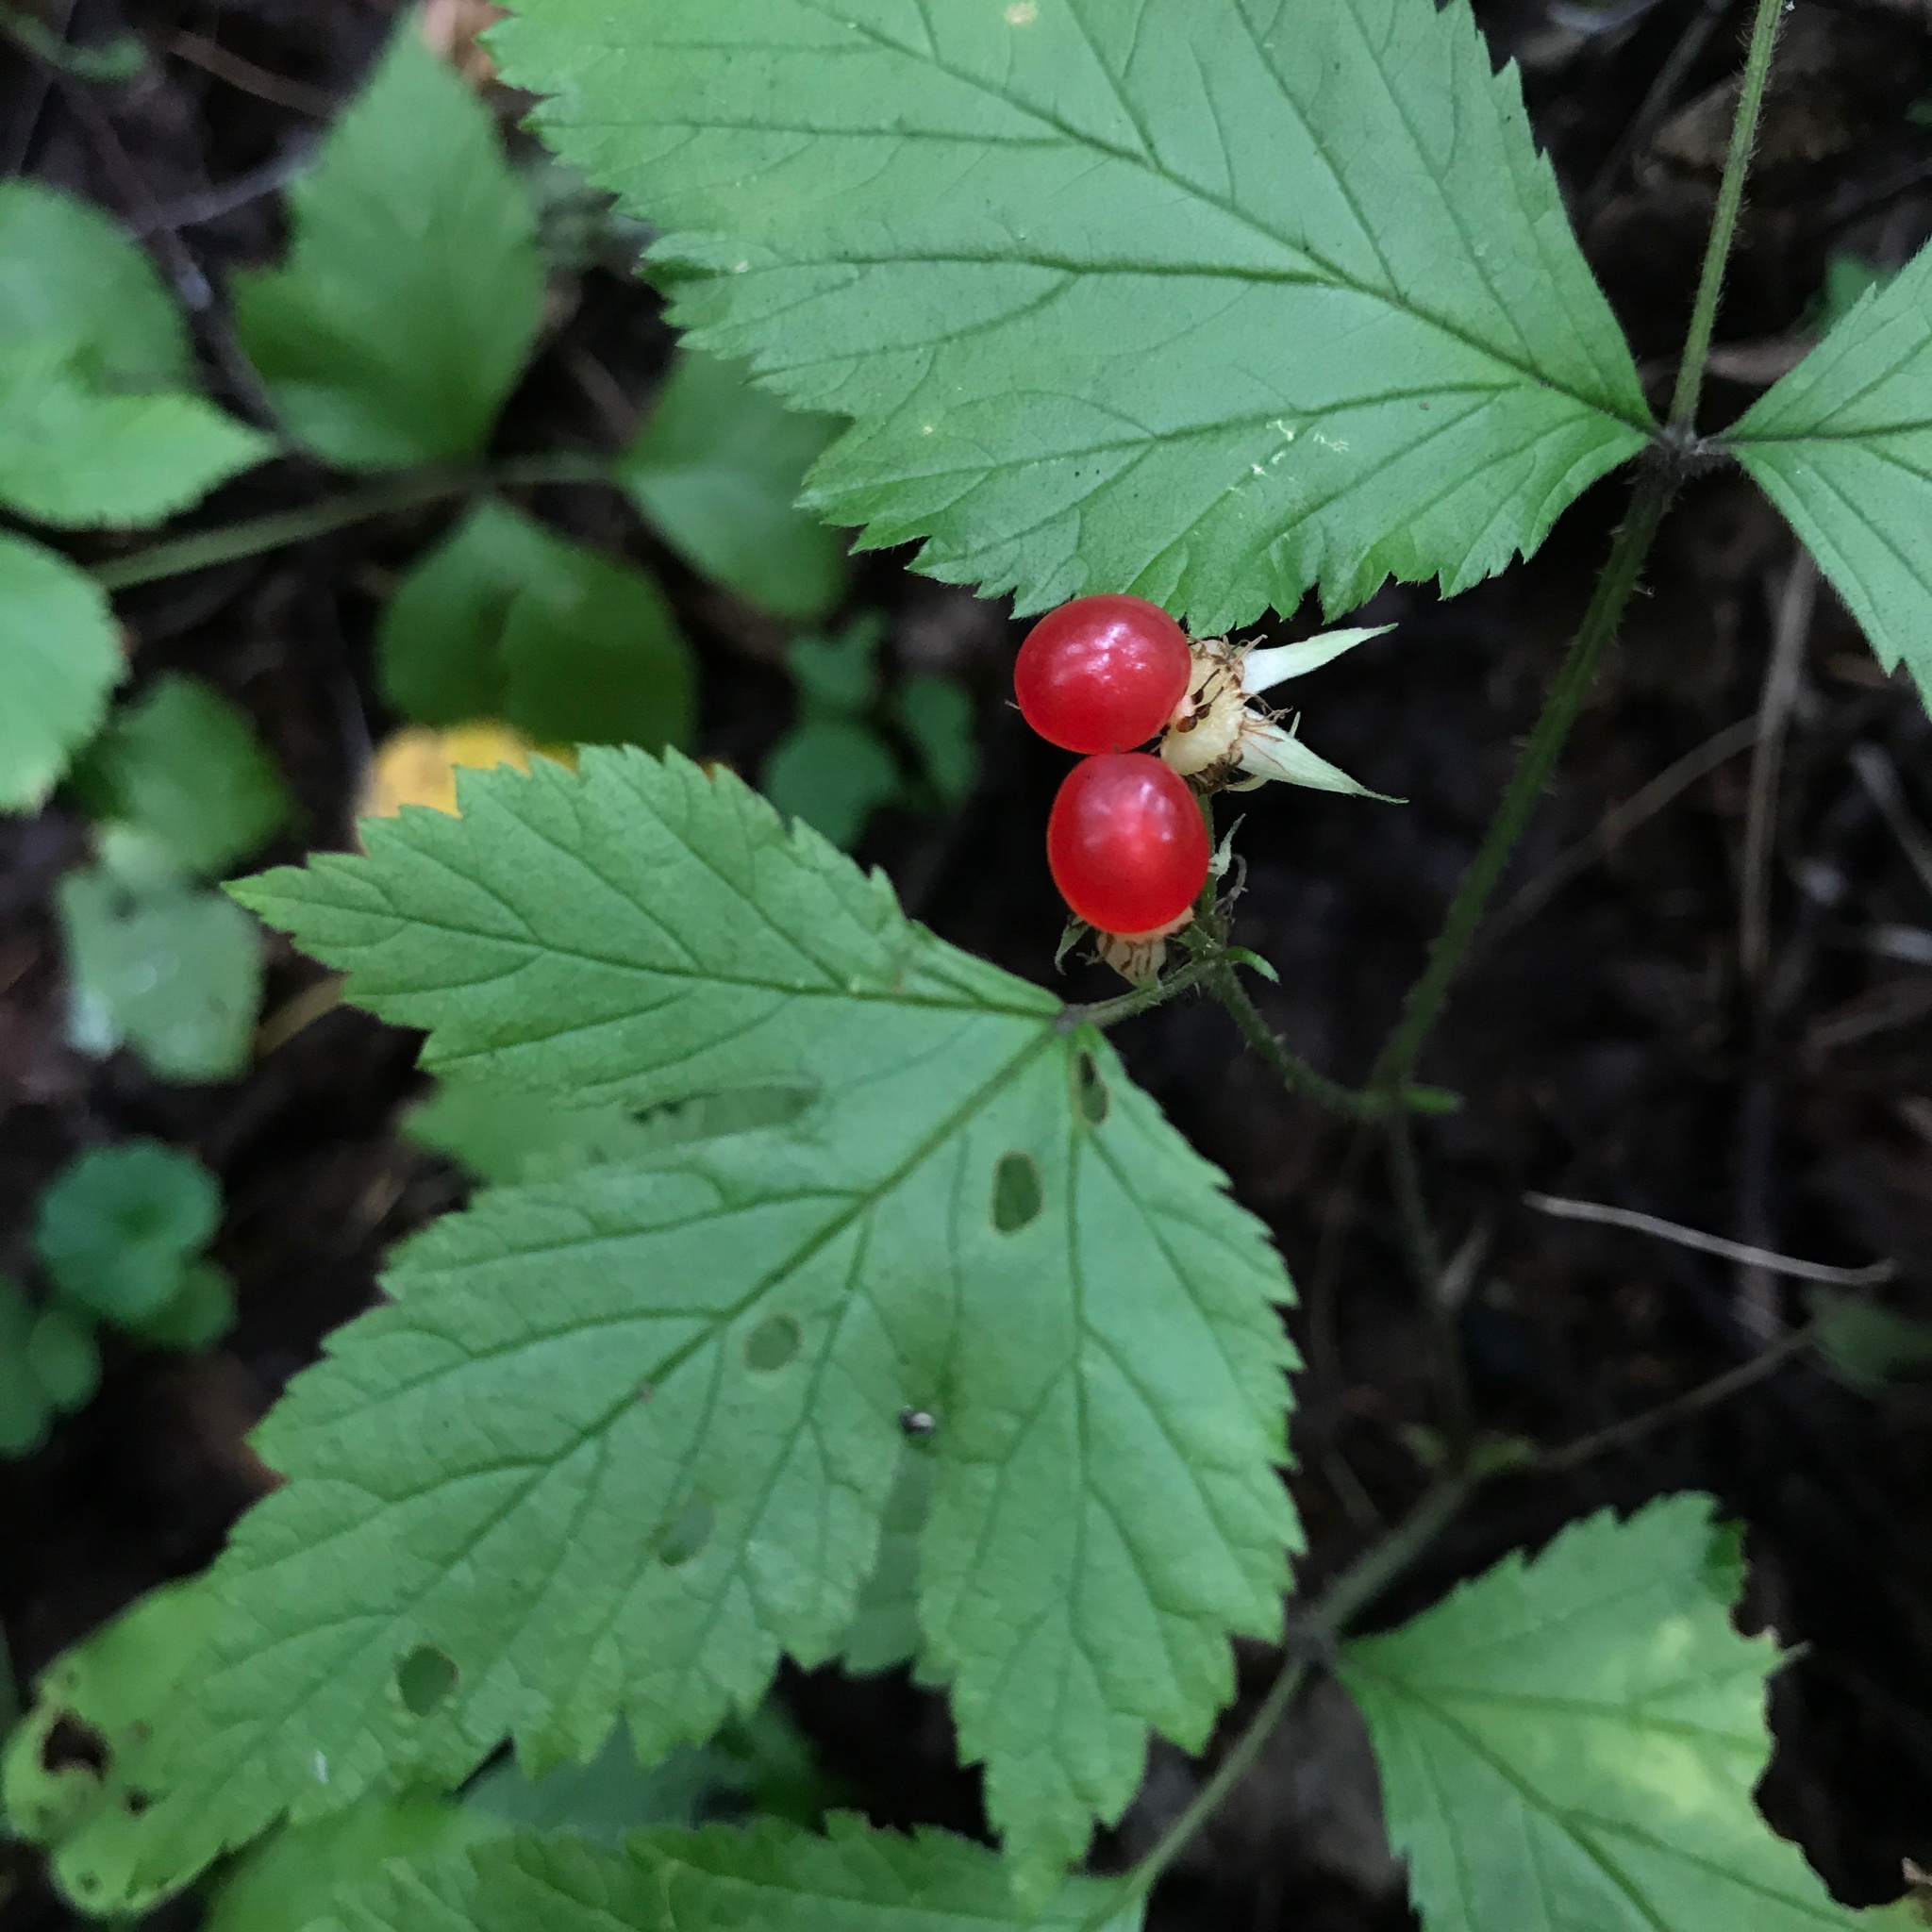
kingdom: Plantae
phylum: Tracheophyta
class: Magnoliopsida
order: Rosales
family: Rosaceae
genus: Rubus
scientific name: Rubus saxatilis
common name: Stone bramble
